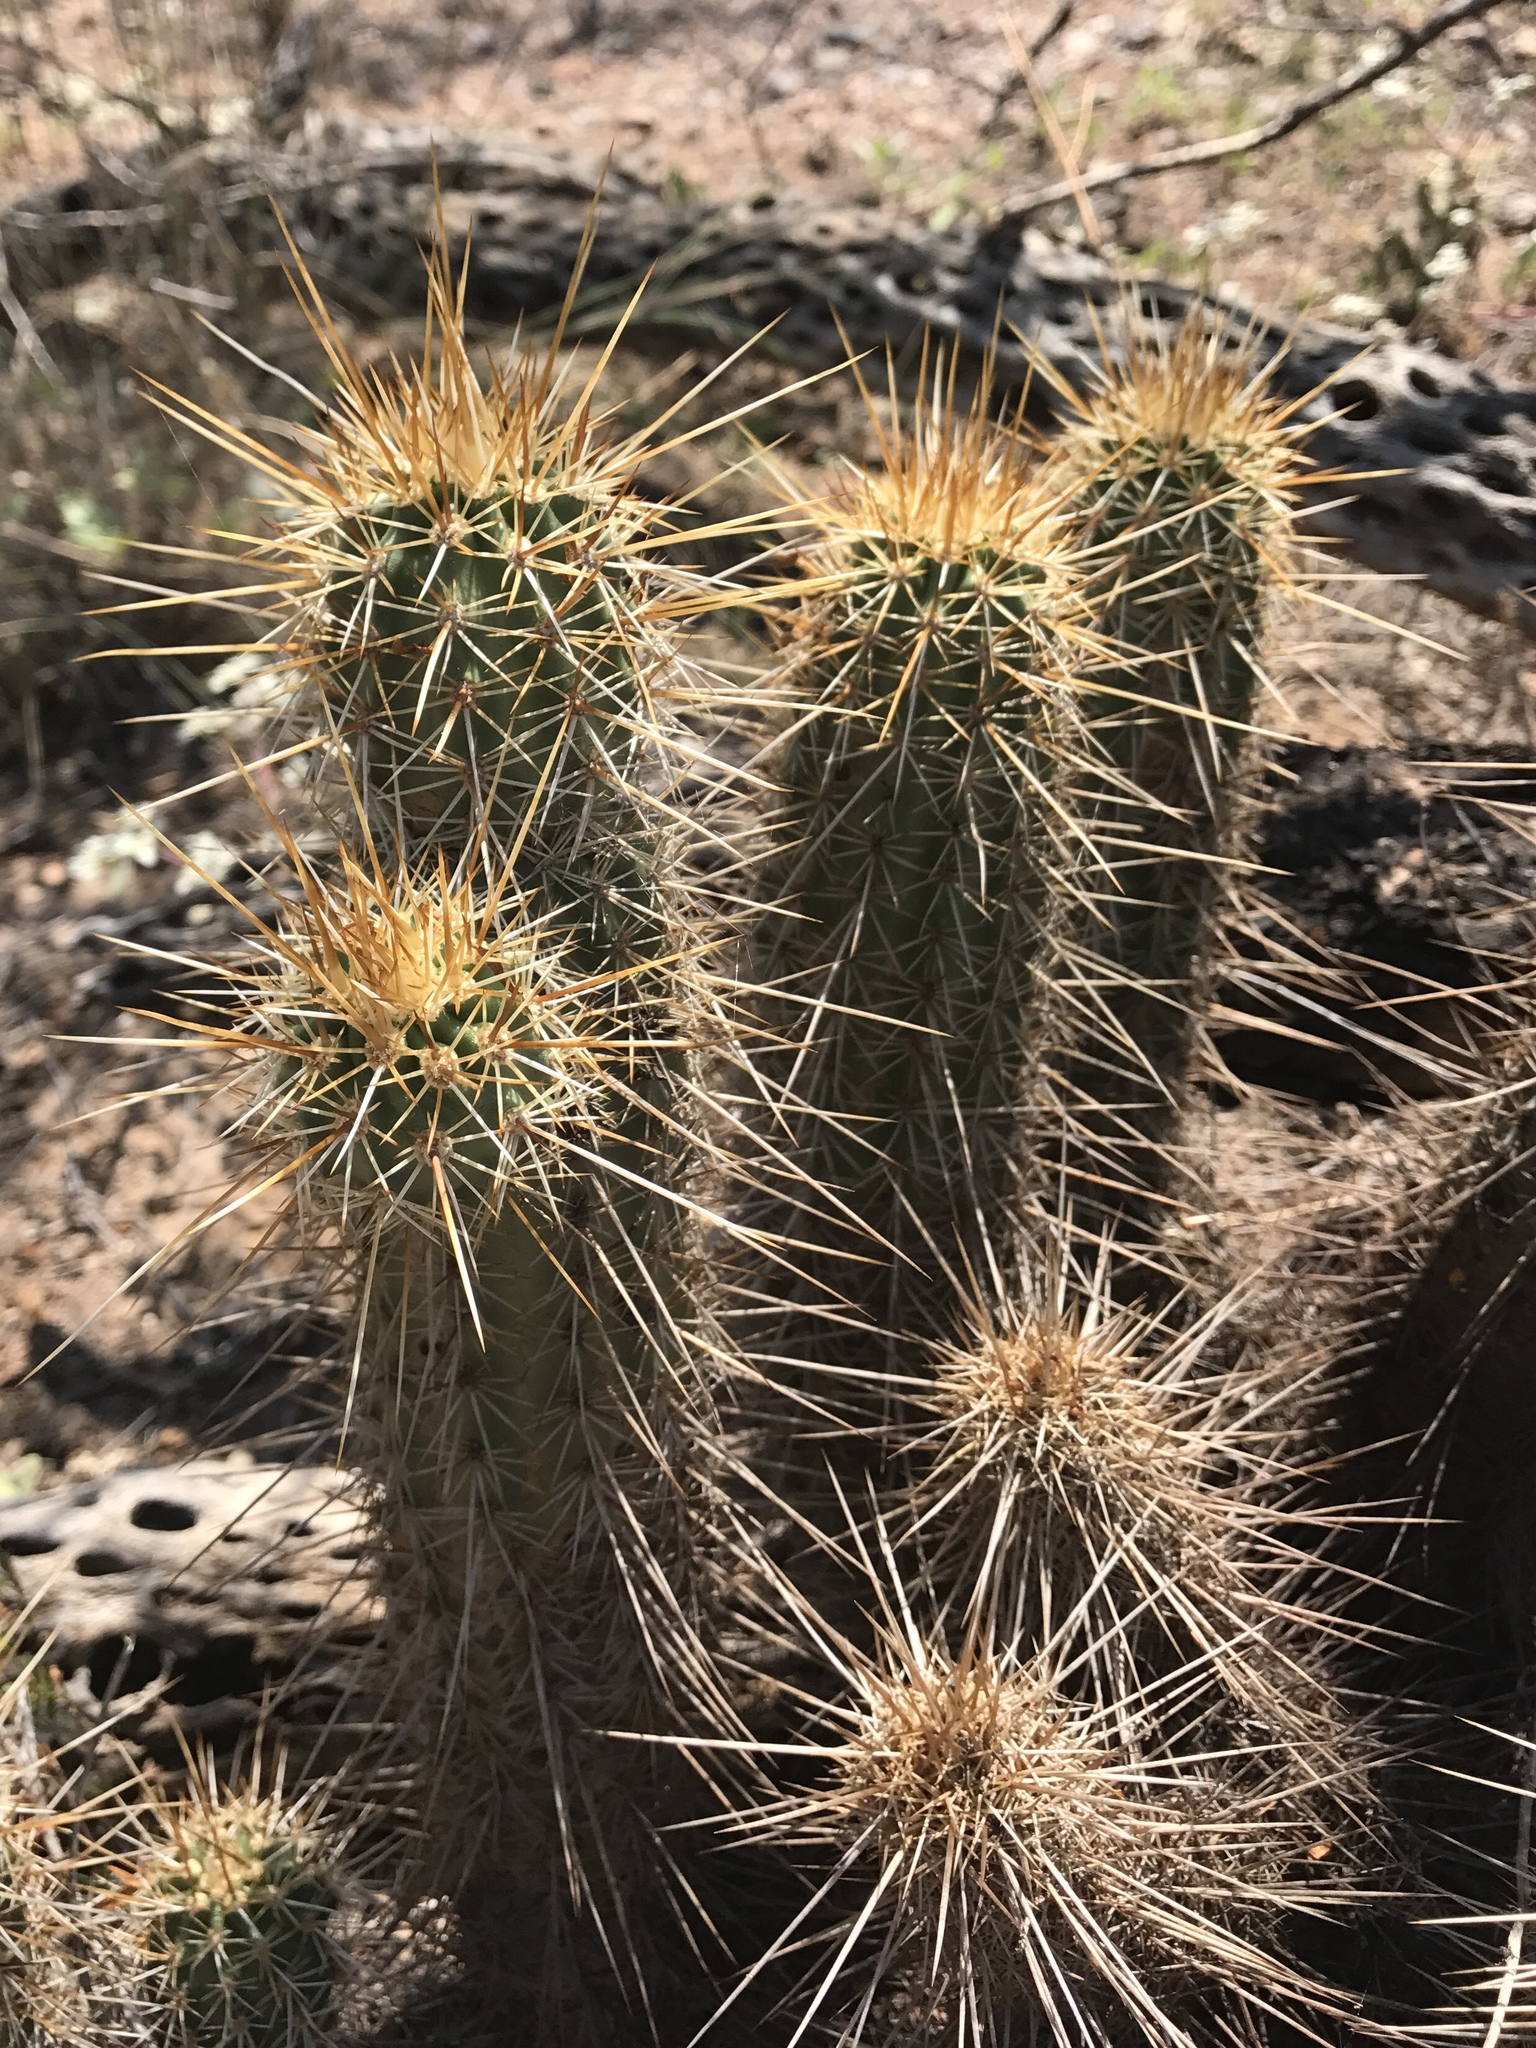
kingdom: Plantae
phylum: Tracheophyta
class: Magnoliopsida
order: Caryophyllales
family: Cactaceae
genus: Echinocereus
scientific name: Echinocereus fasciculatus
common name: Bundle hedgehog
